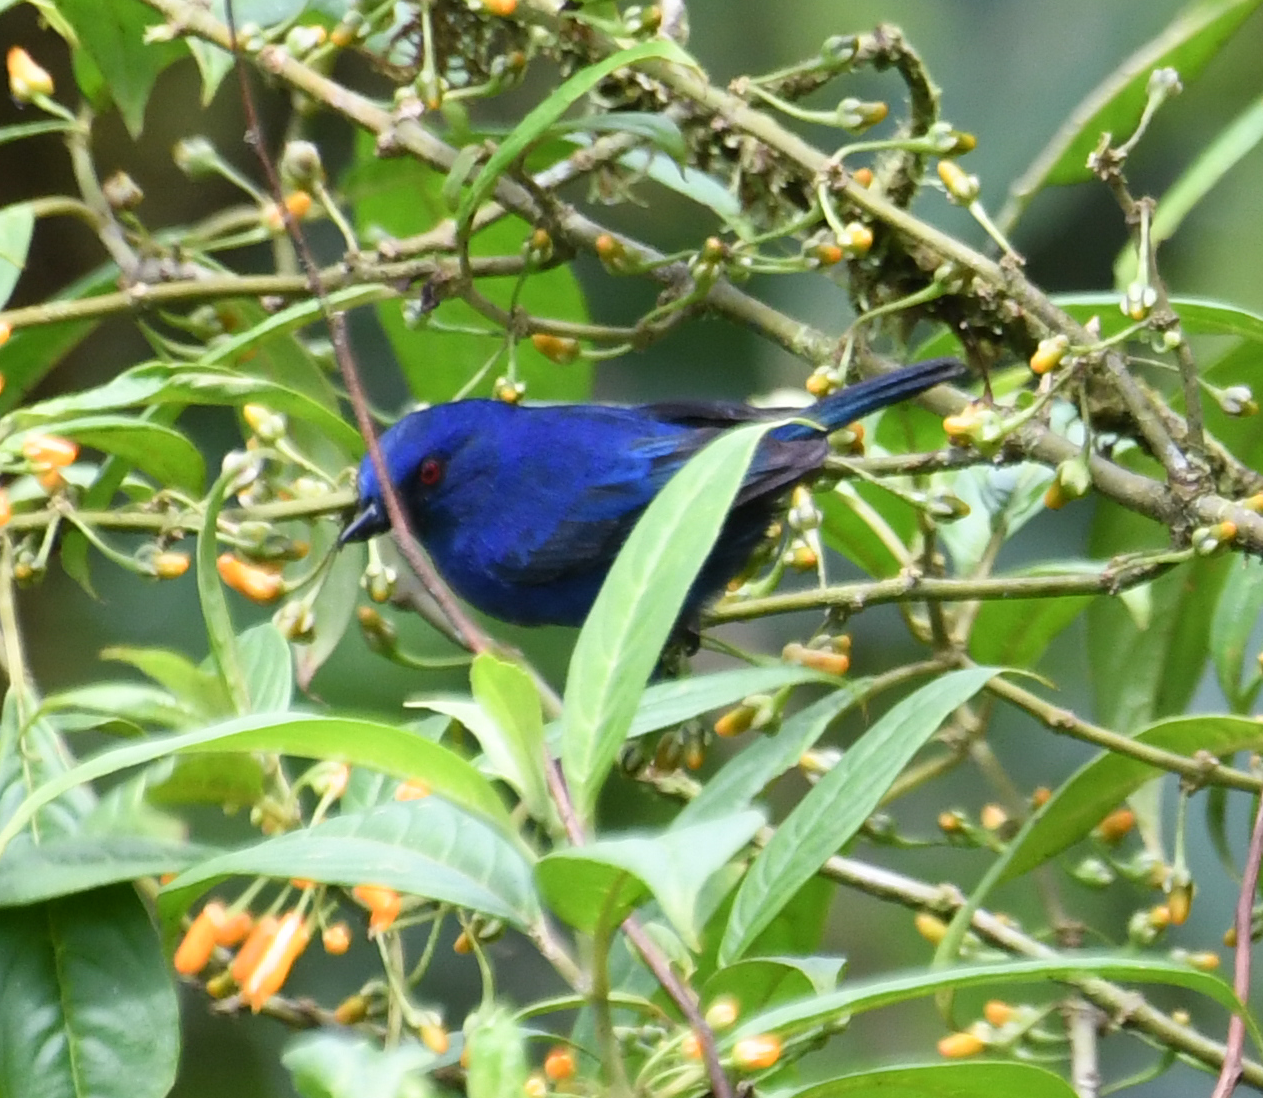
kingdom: Animalia
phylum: Chordata
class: Aves
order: Passeriformes
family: Thraupidae
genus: Diglossa
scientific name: Diglossa indigotica
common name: Indigo flowerpiercer
